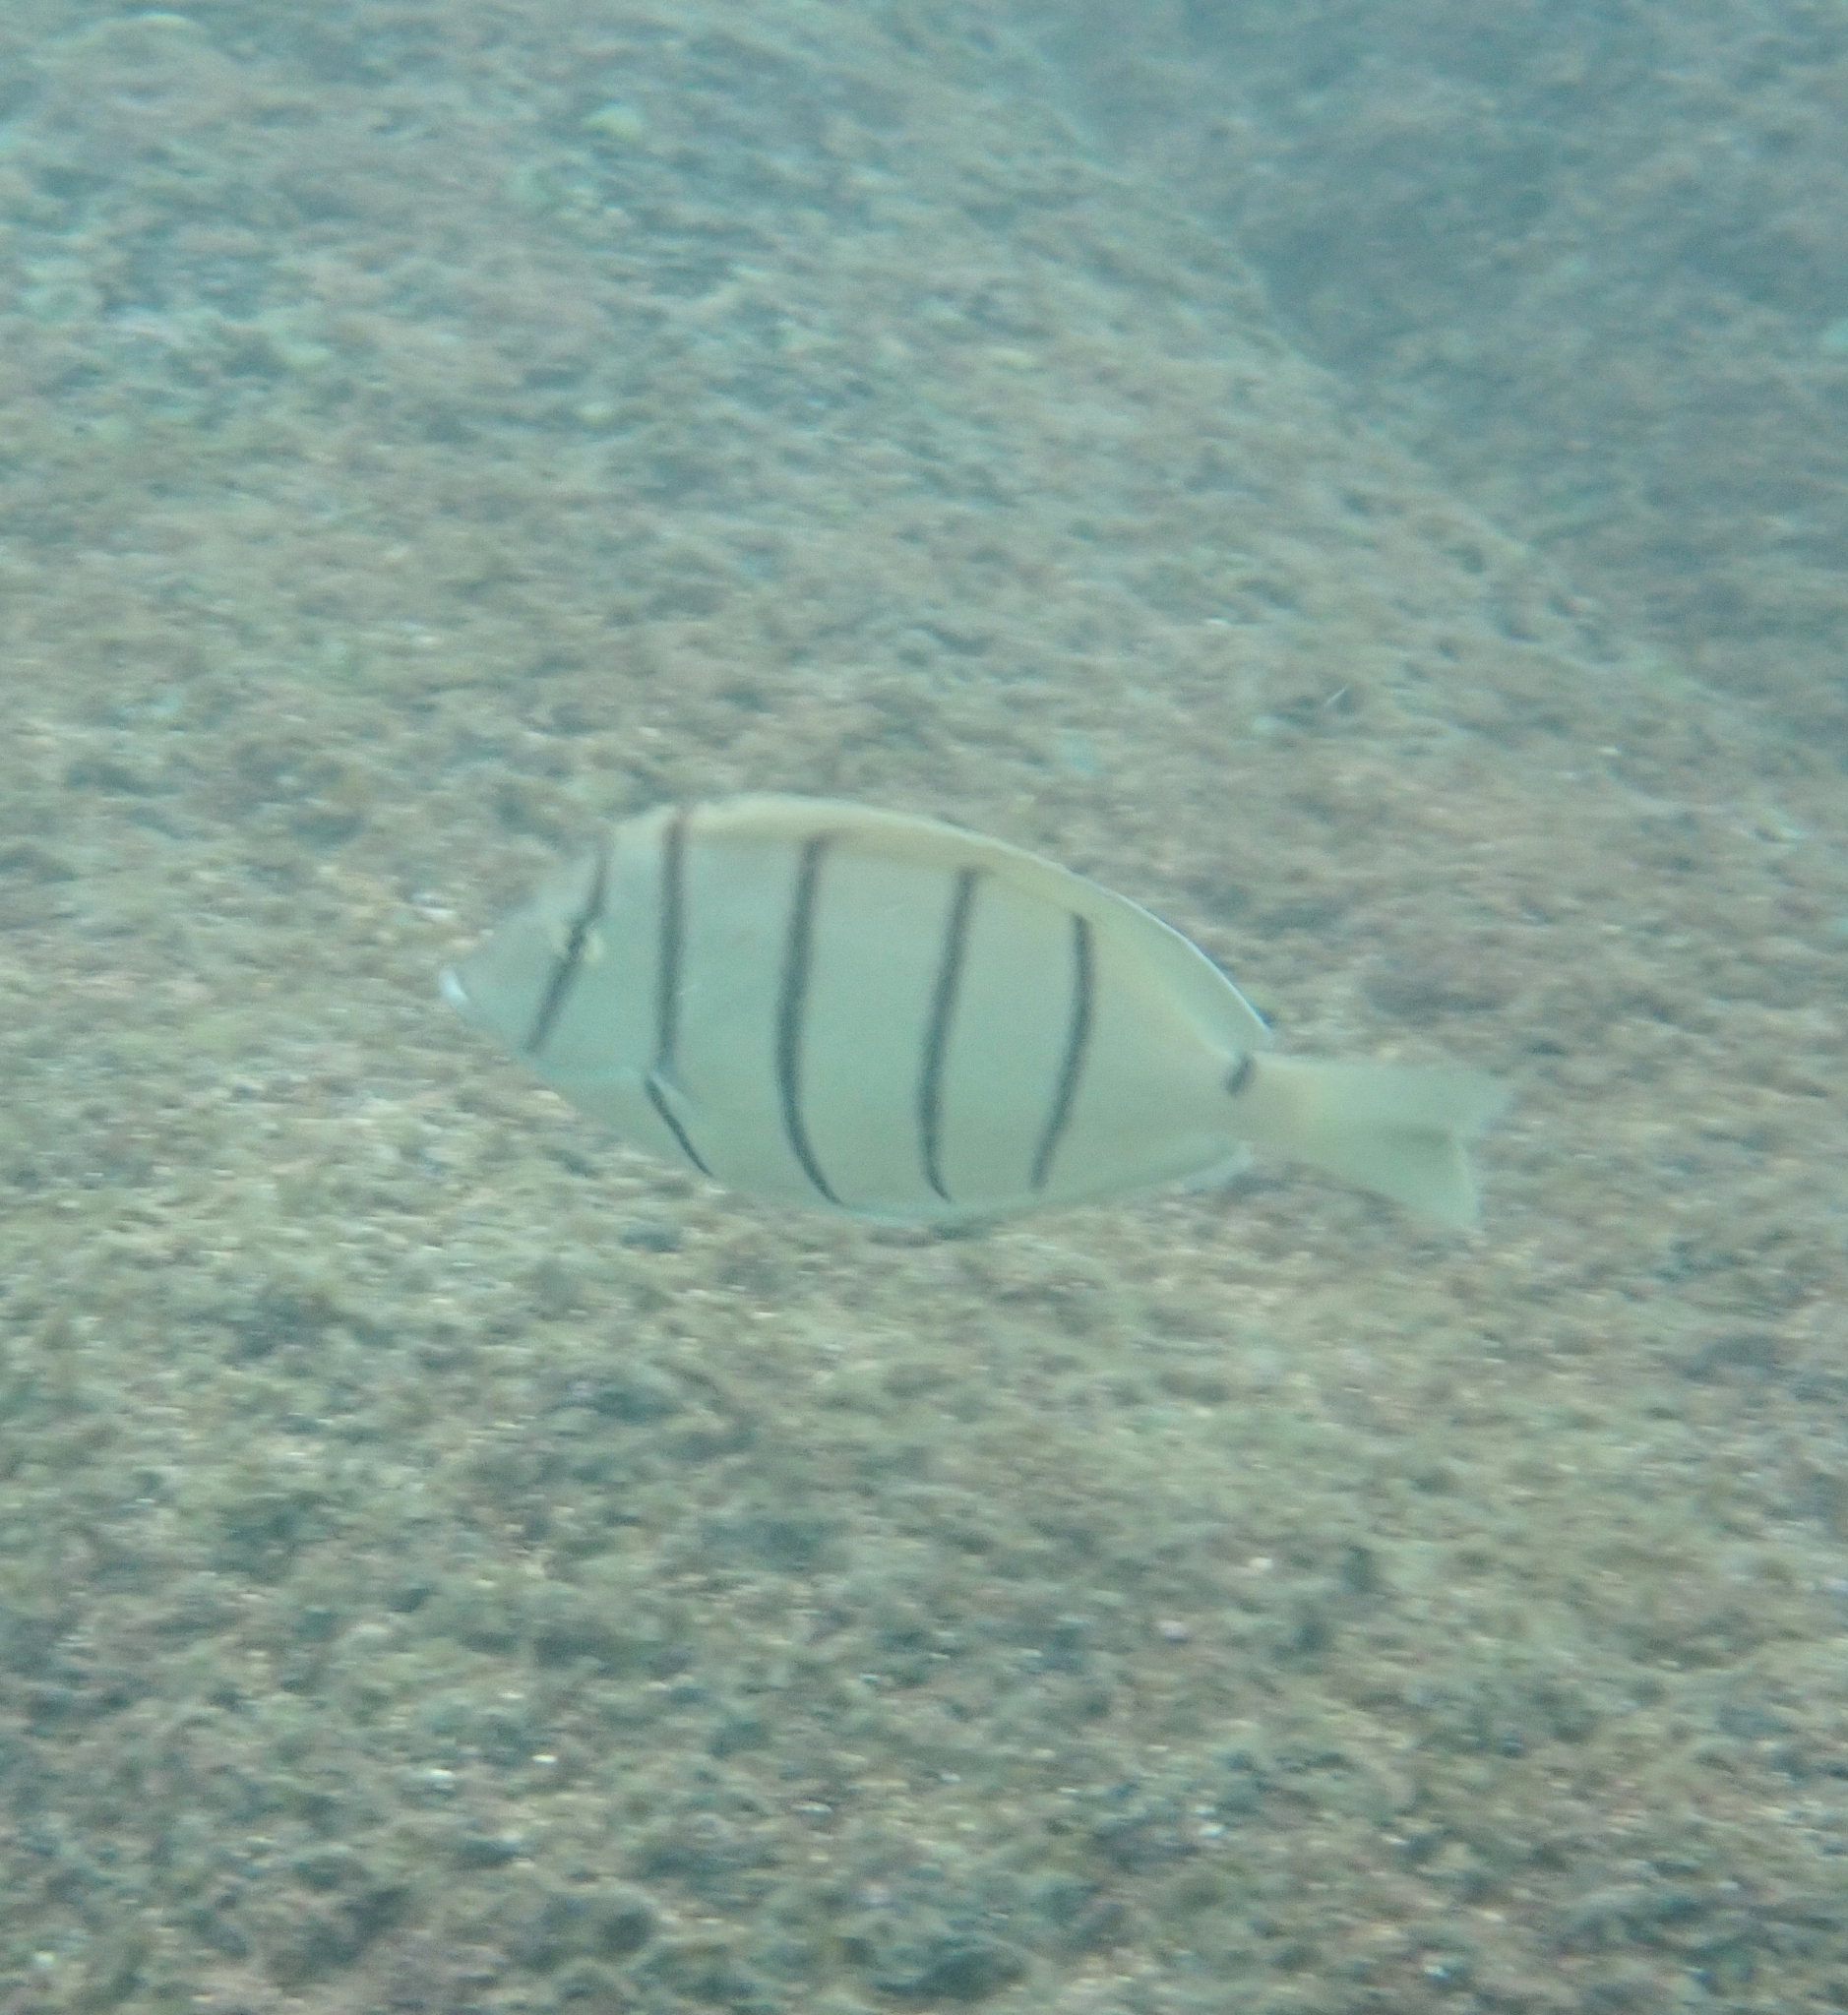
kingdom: Animalia
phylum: Chordata
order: Perciformes
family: Acanthuridae
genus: Acanthurus
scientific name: Acanthurus triostegus
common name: Convict surgeonfish
